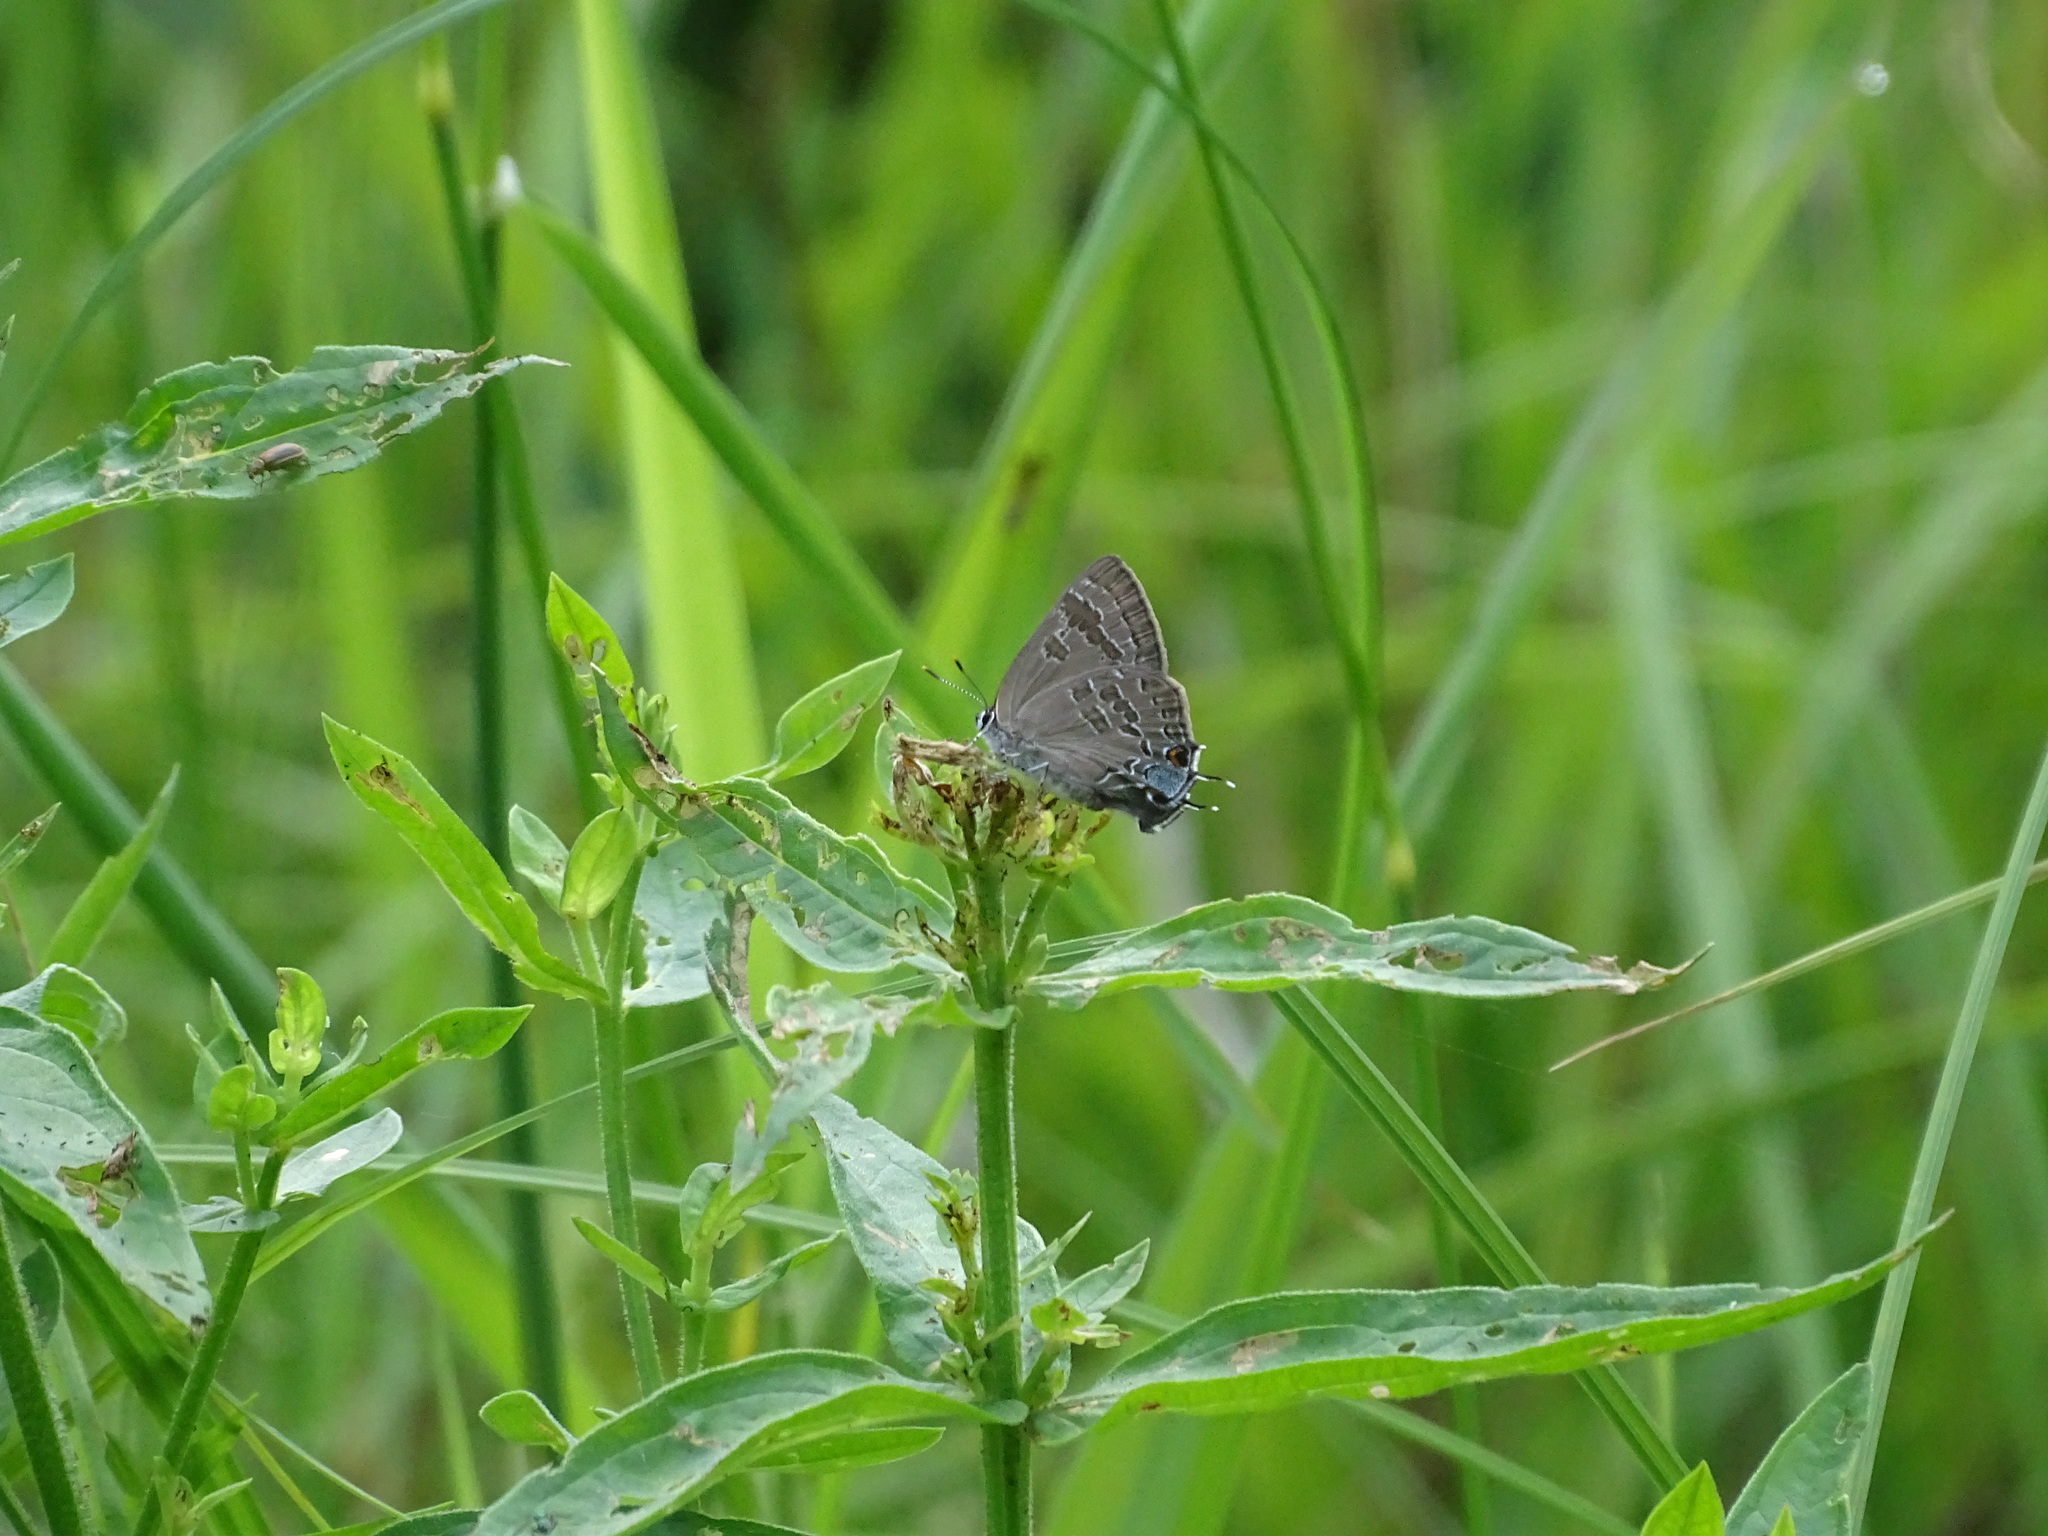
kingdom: Animalia
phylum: Arthropoda
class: Insecta
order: Lepidoptera
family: Lycaenidae
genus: Strymon
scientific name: Strymon caryaevorus
